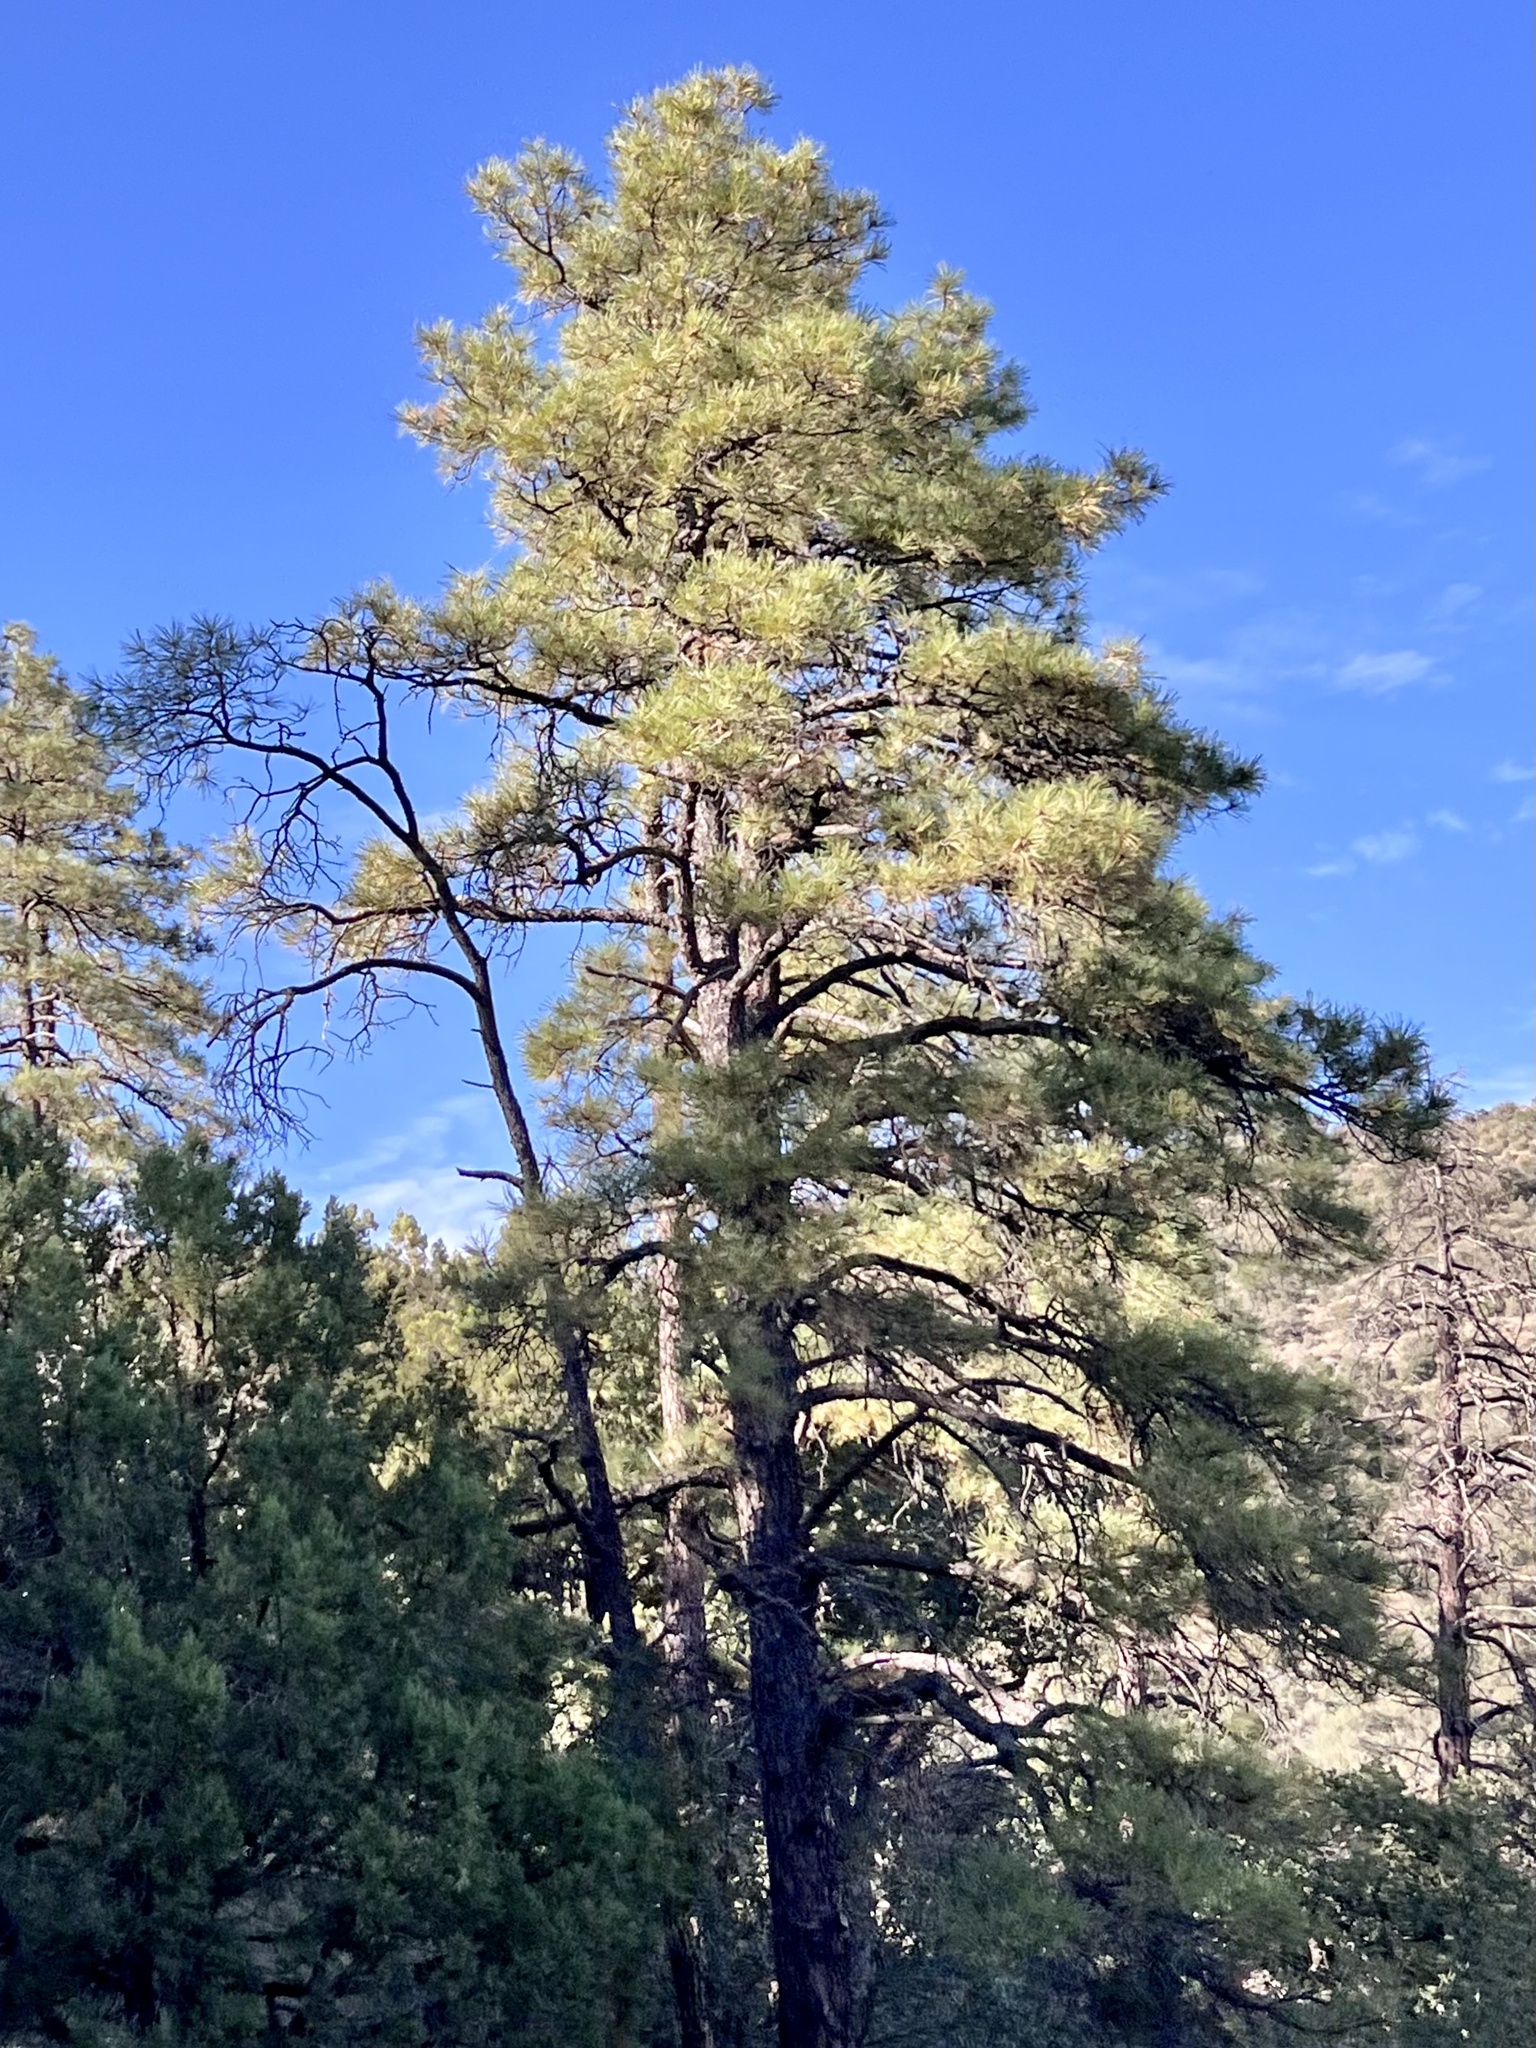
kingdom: Plantae
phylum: Tracheophyta
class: Pinopsida
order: Pinales
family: Pinaceae
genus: Pinus
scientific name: Pinus ponderosa
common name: Western yellow-pine
